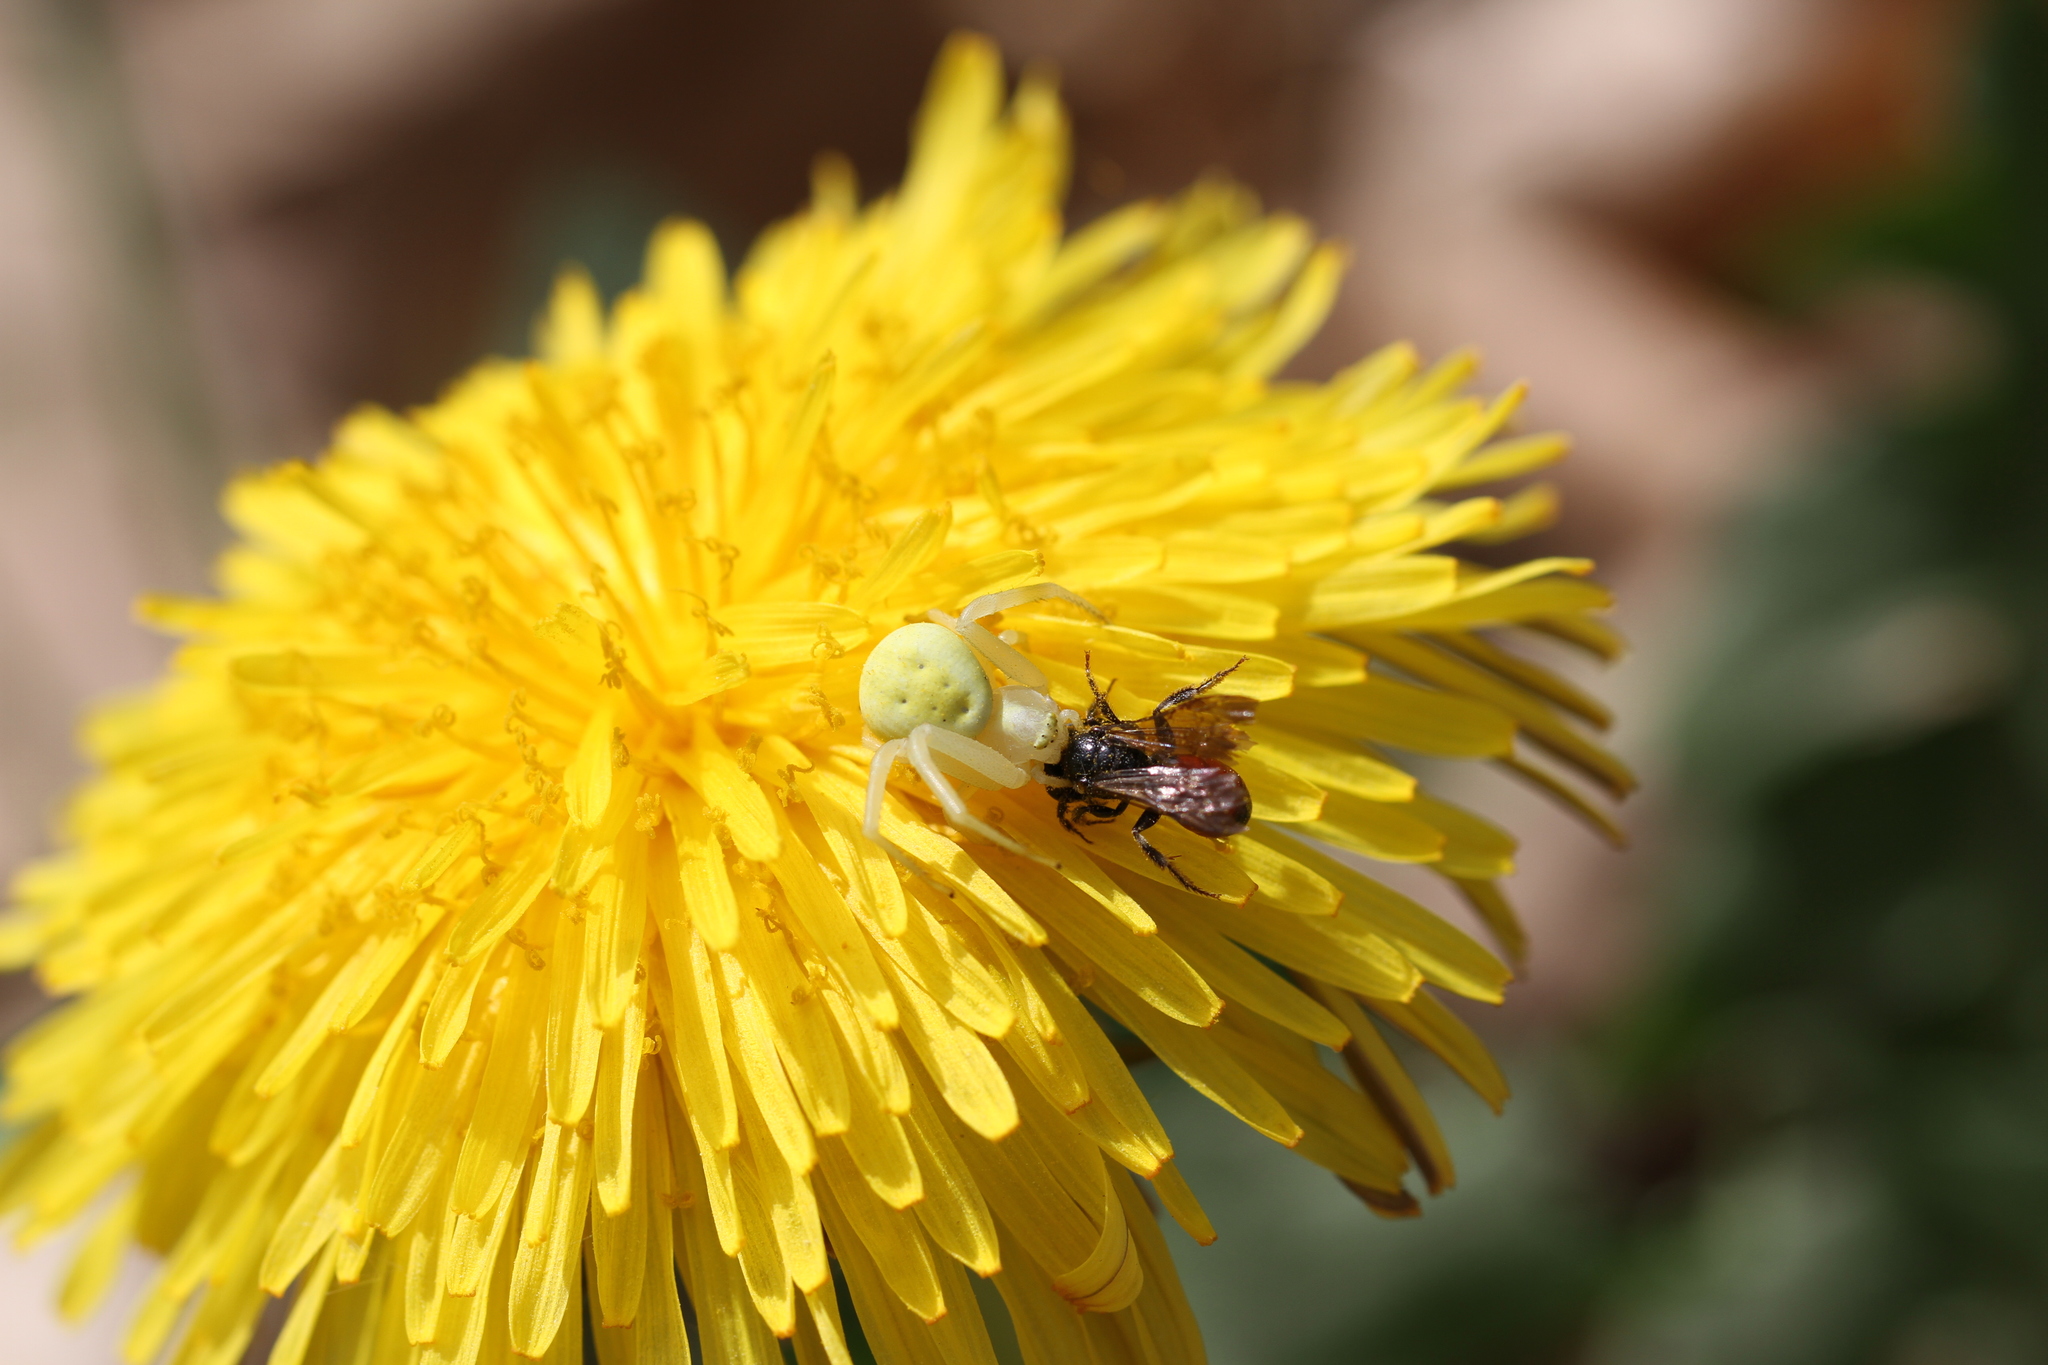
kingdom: Animalia
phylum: Arthropoda
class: Arachnida
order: Araneae
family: Thomisidae
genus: Misumena
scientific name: Misumena vatia
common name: Goldenrod crab spider
